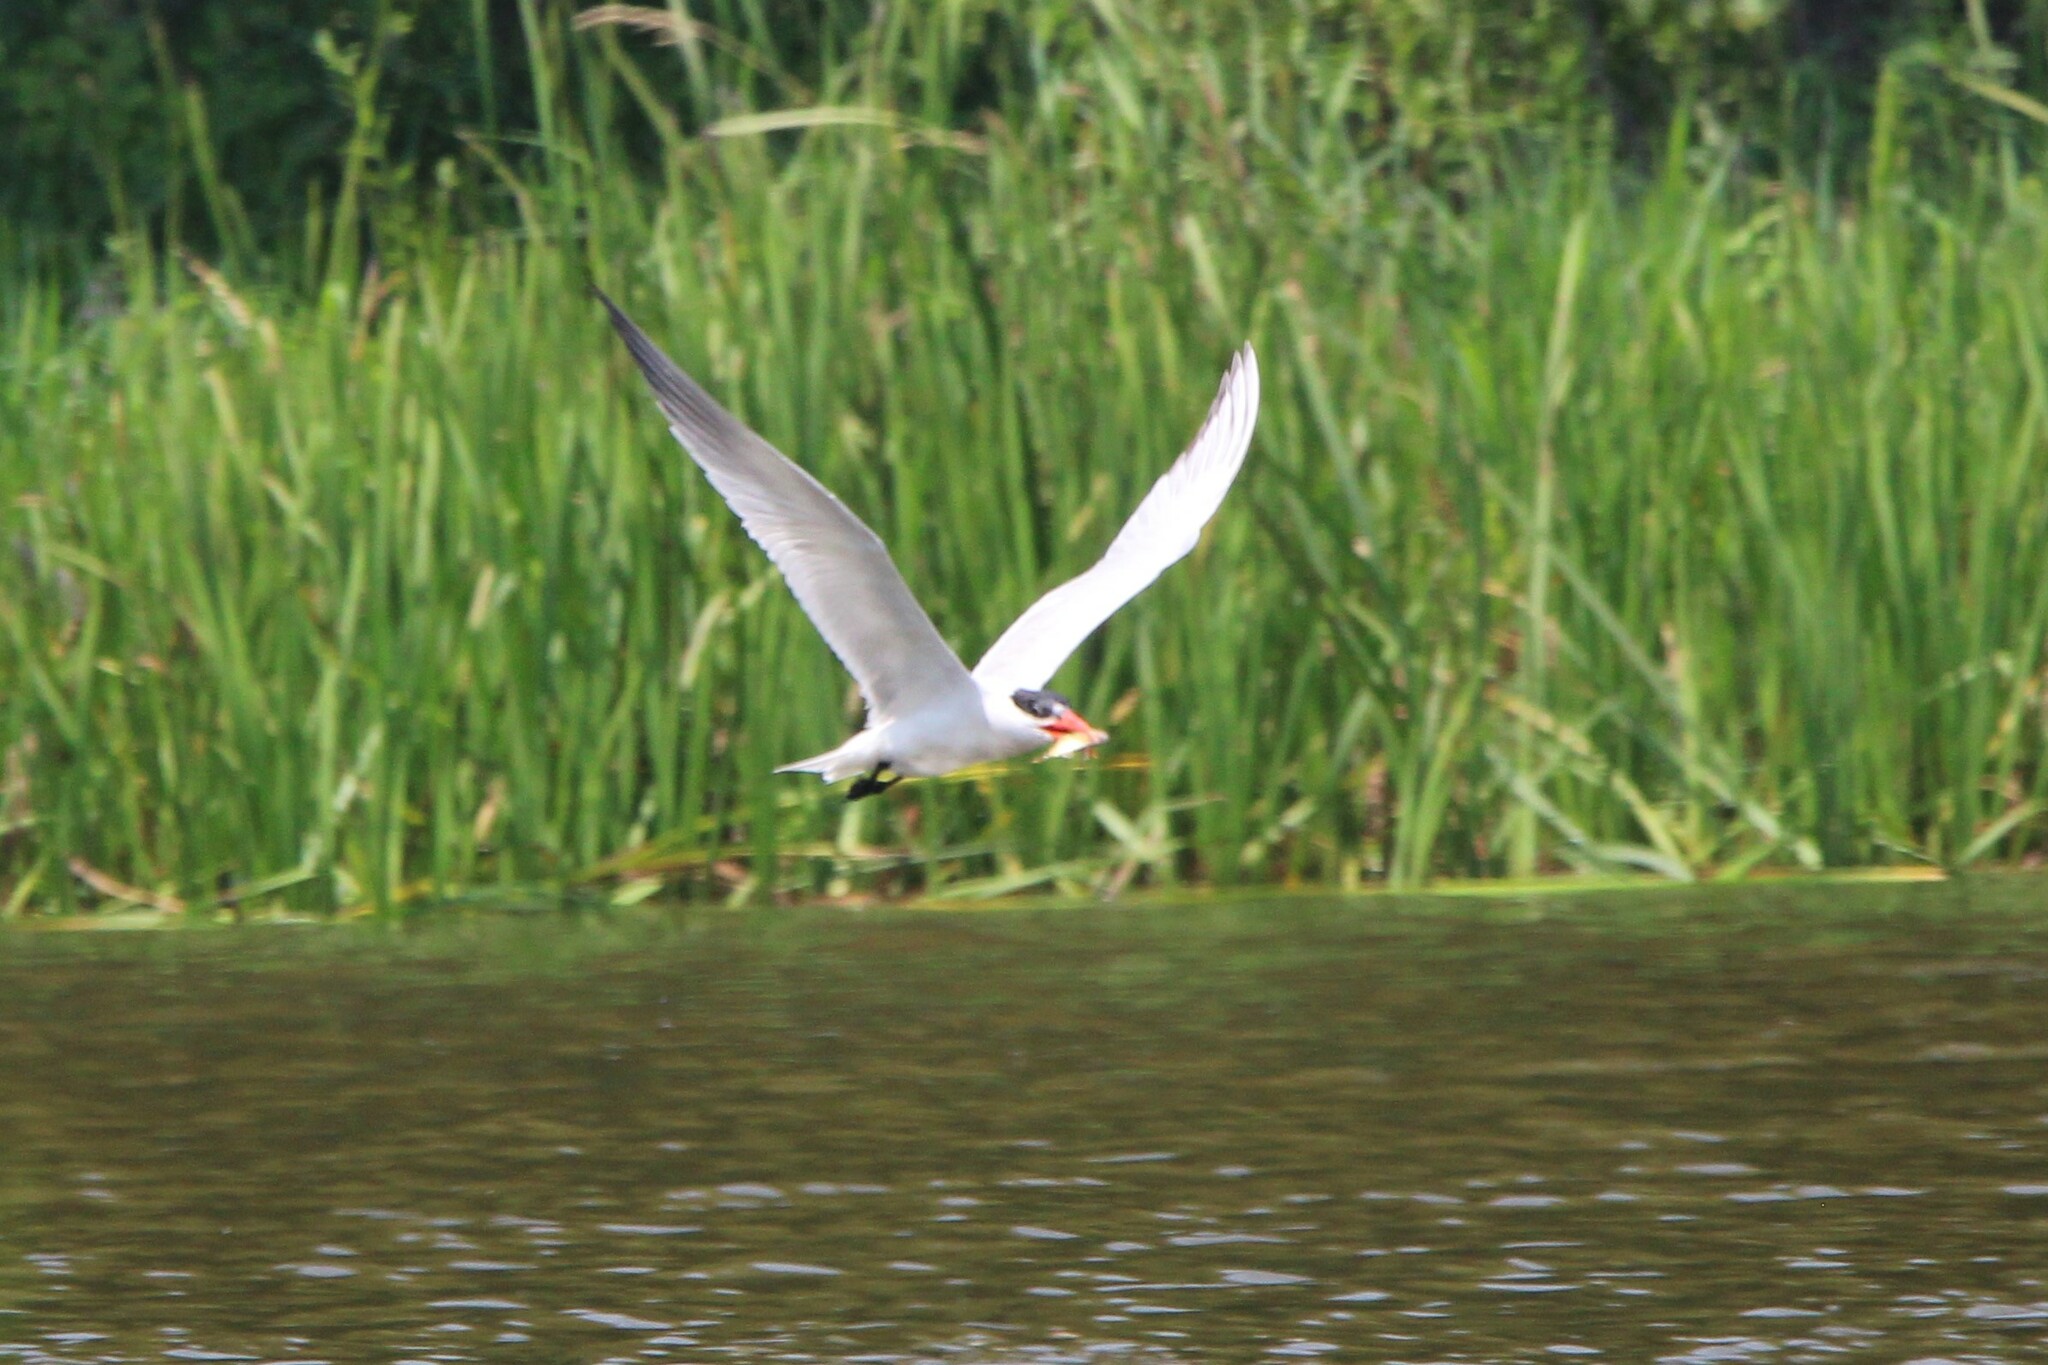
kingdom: Animalia
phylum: Chordata
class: Aves
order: Charadriiformes
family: Laridae
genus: Hydroprogne
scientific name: Hydroprogne caspia
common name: Caspian tern
